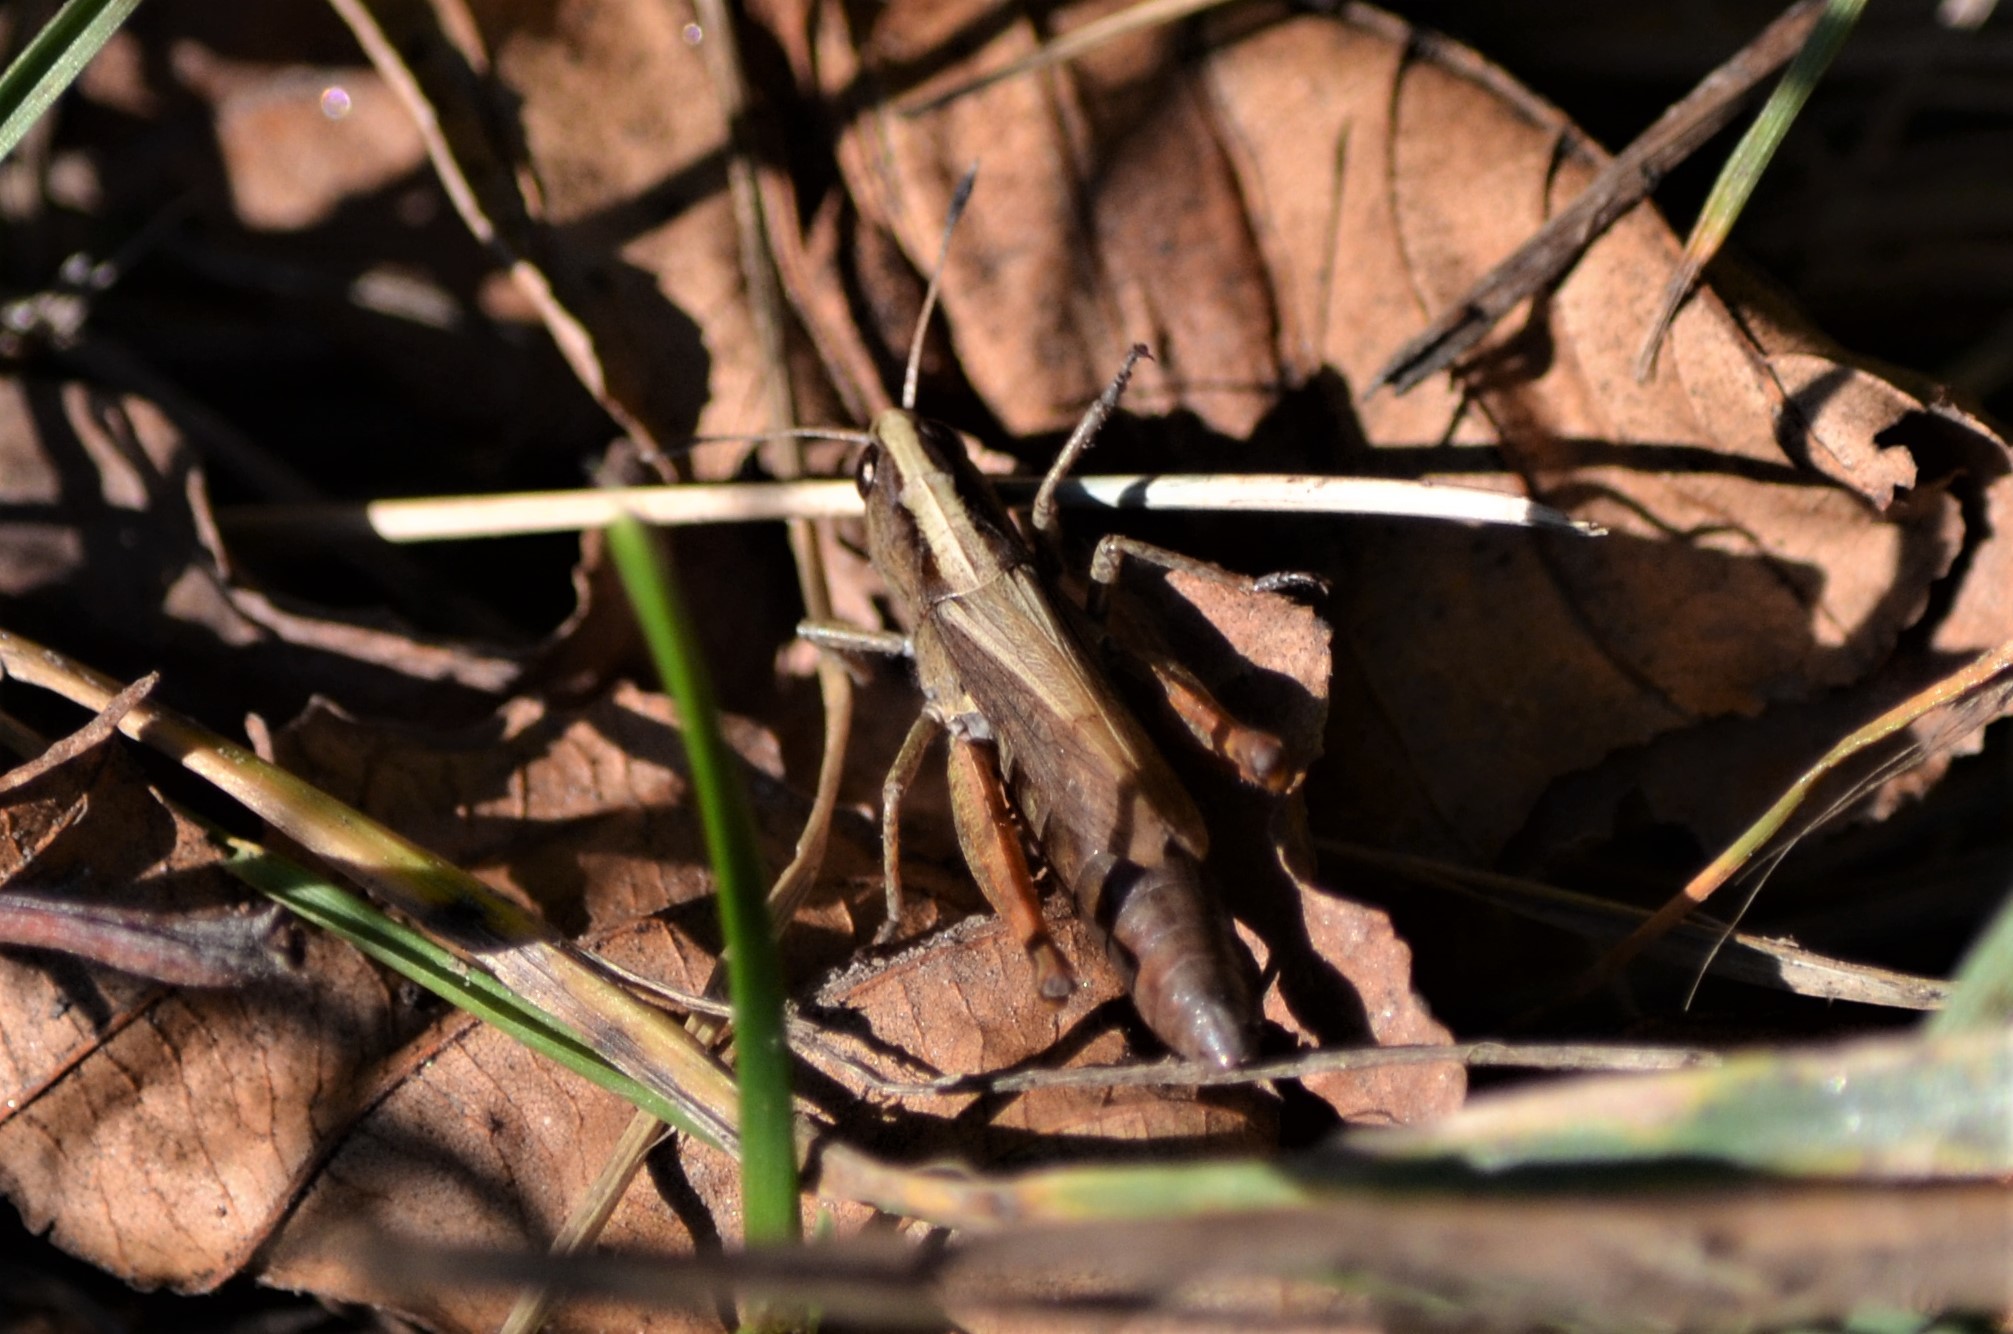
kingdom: Animalia
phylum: Arthropoda
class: Insecta
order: Orthoptera
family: Acrididae
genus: Gomphocerippus
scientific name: Gomphocerippus rufus
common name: Rufous grasshopper
